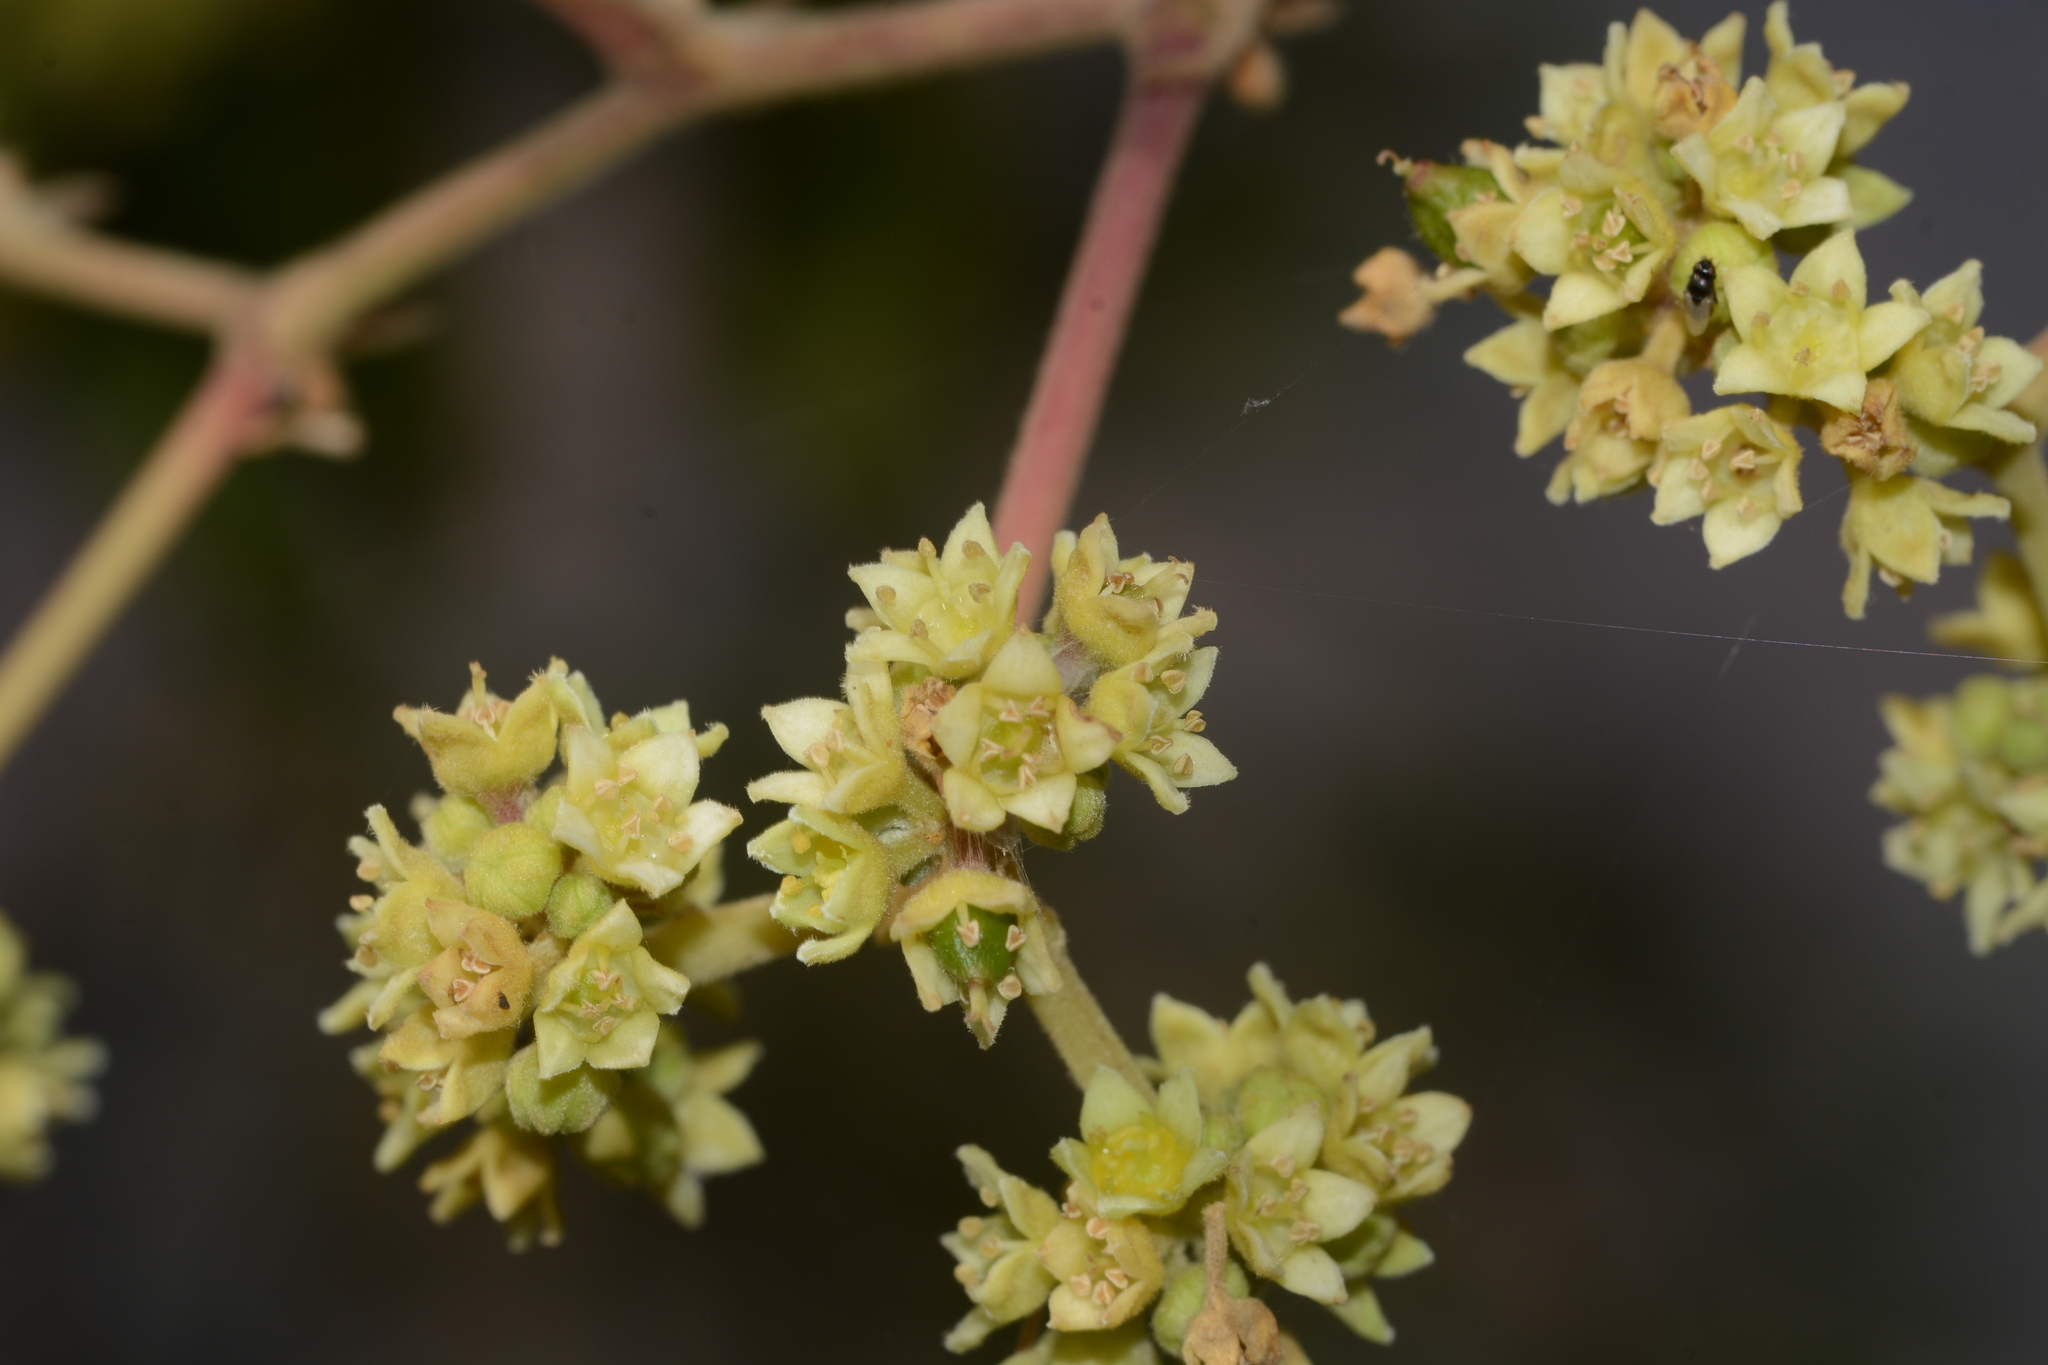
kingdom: Plantae
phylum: Tracheophyta
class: Magnoliopsida
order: Rosales
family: Rhamnaceae
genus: Ziziphus
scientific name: Ziziphus rugosa
